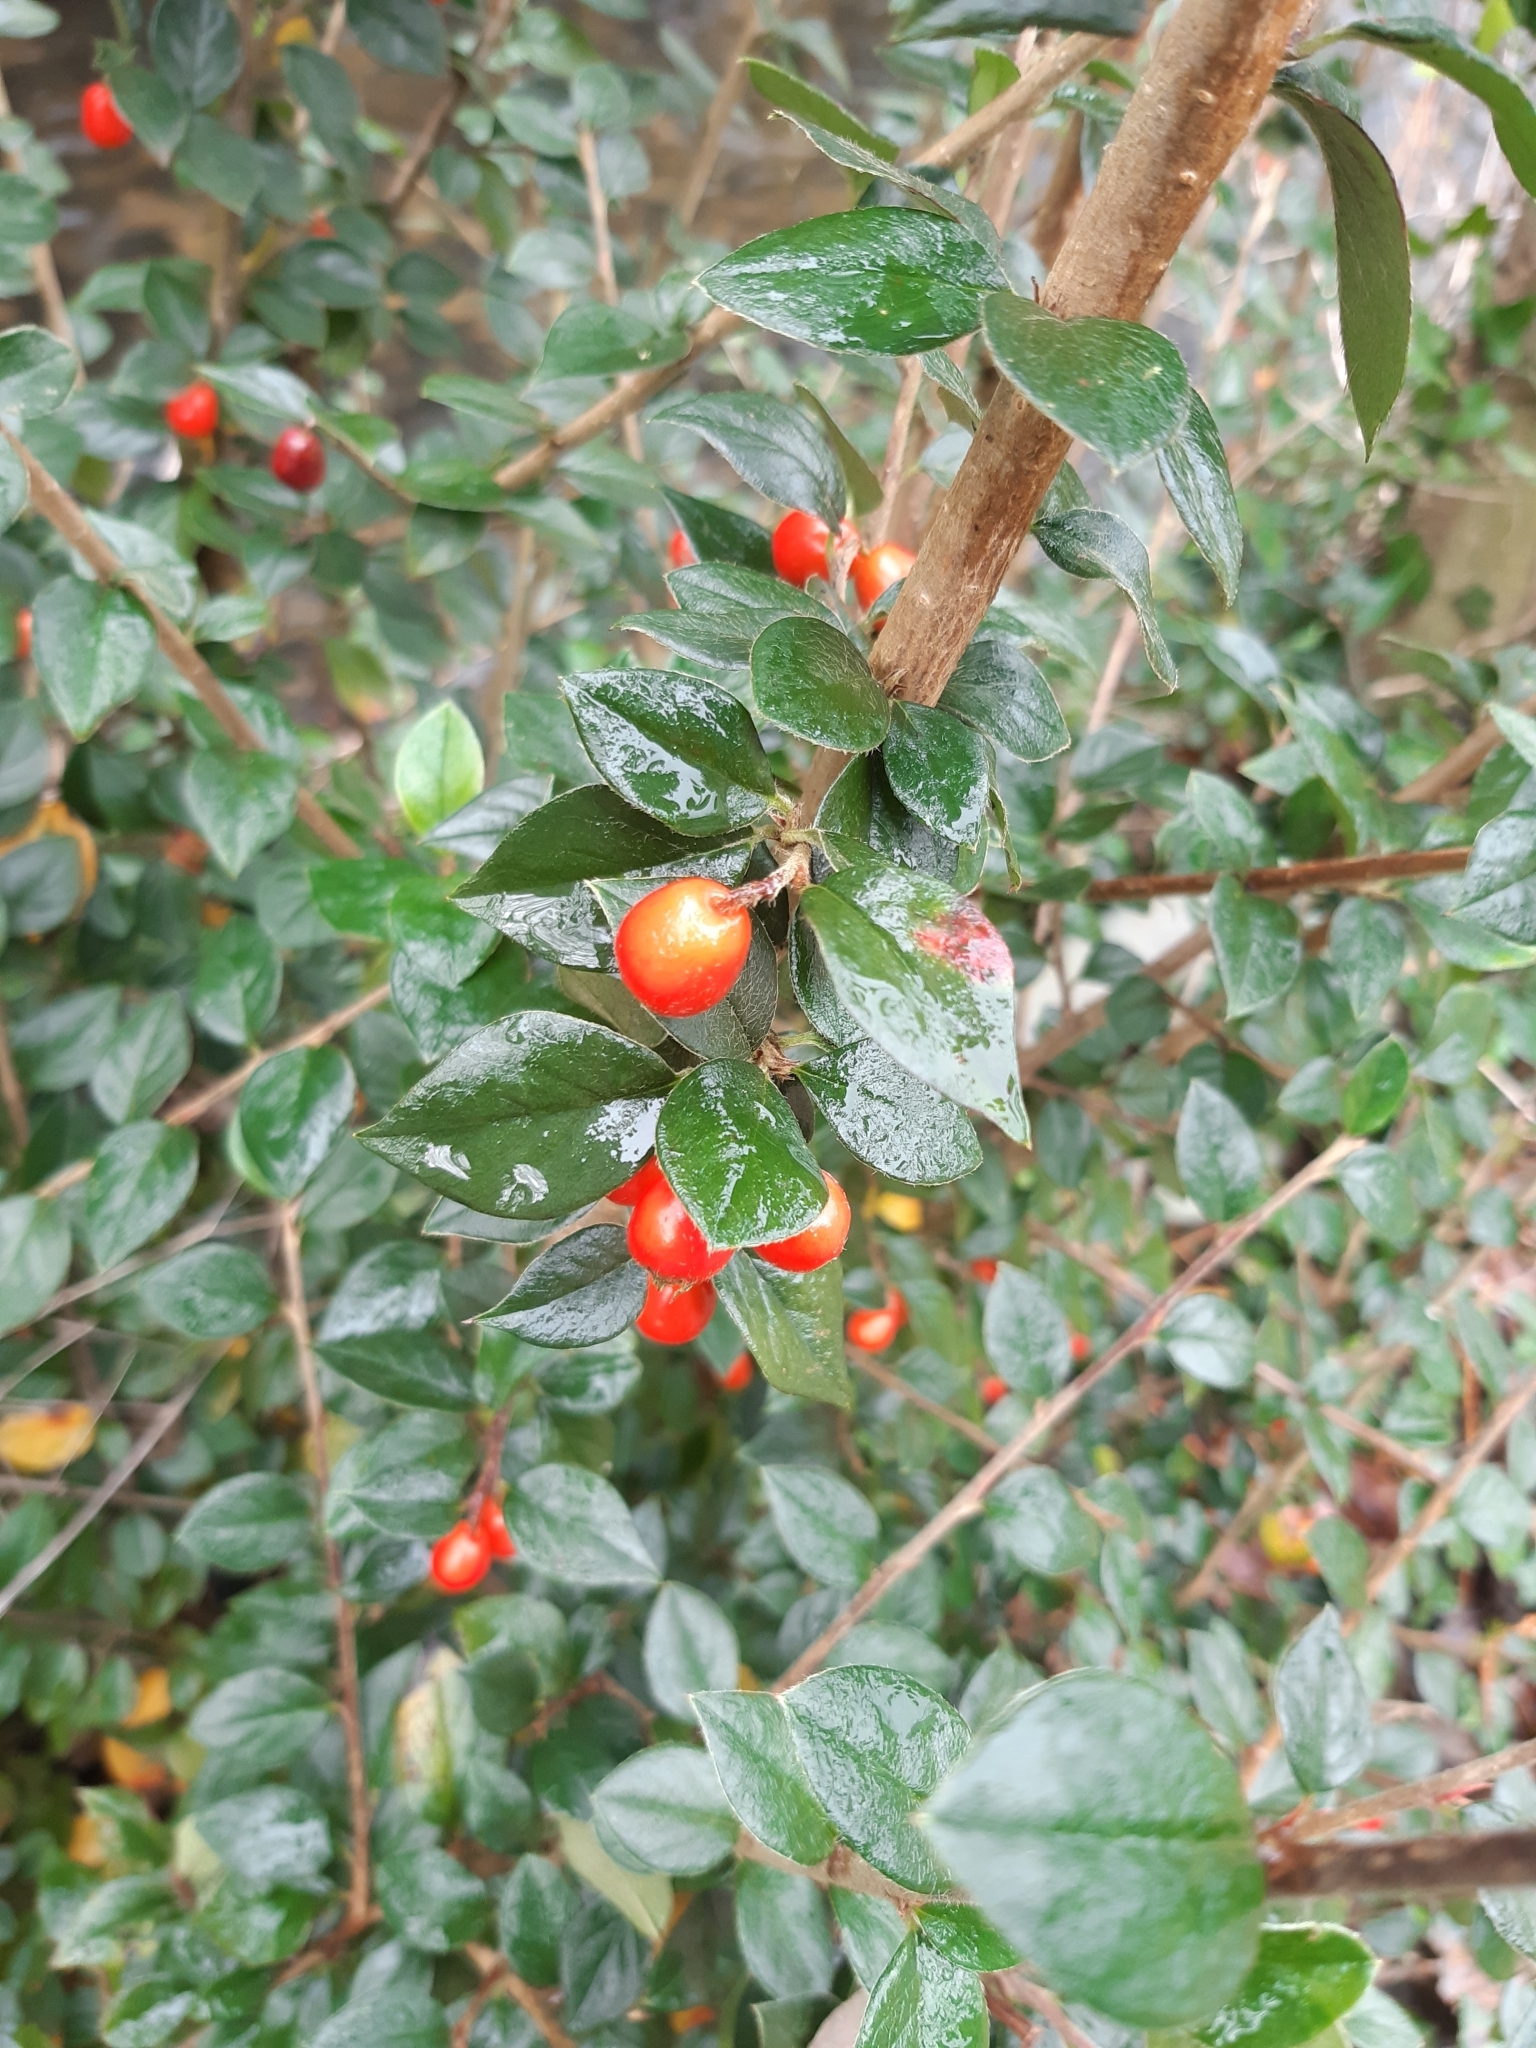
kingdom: Plantae
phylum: Tracheophyta
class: Magnoliopsida
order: Rosales
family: Rosaceae
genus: Cotoneaster
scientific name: Cotoneaster simonsii
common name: Himalayan cotoneaster
